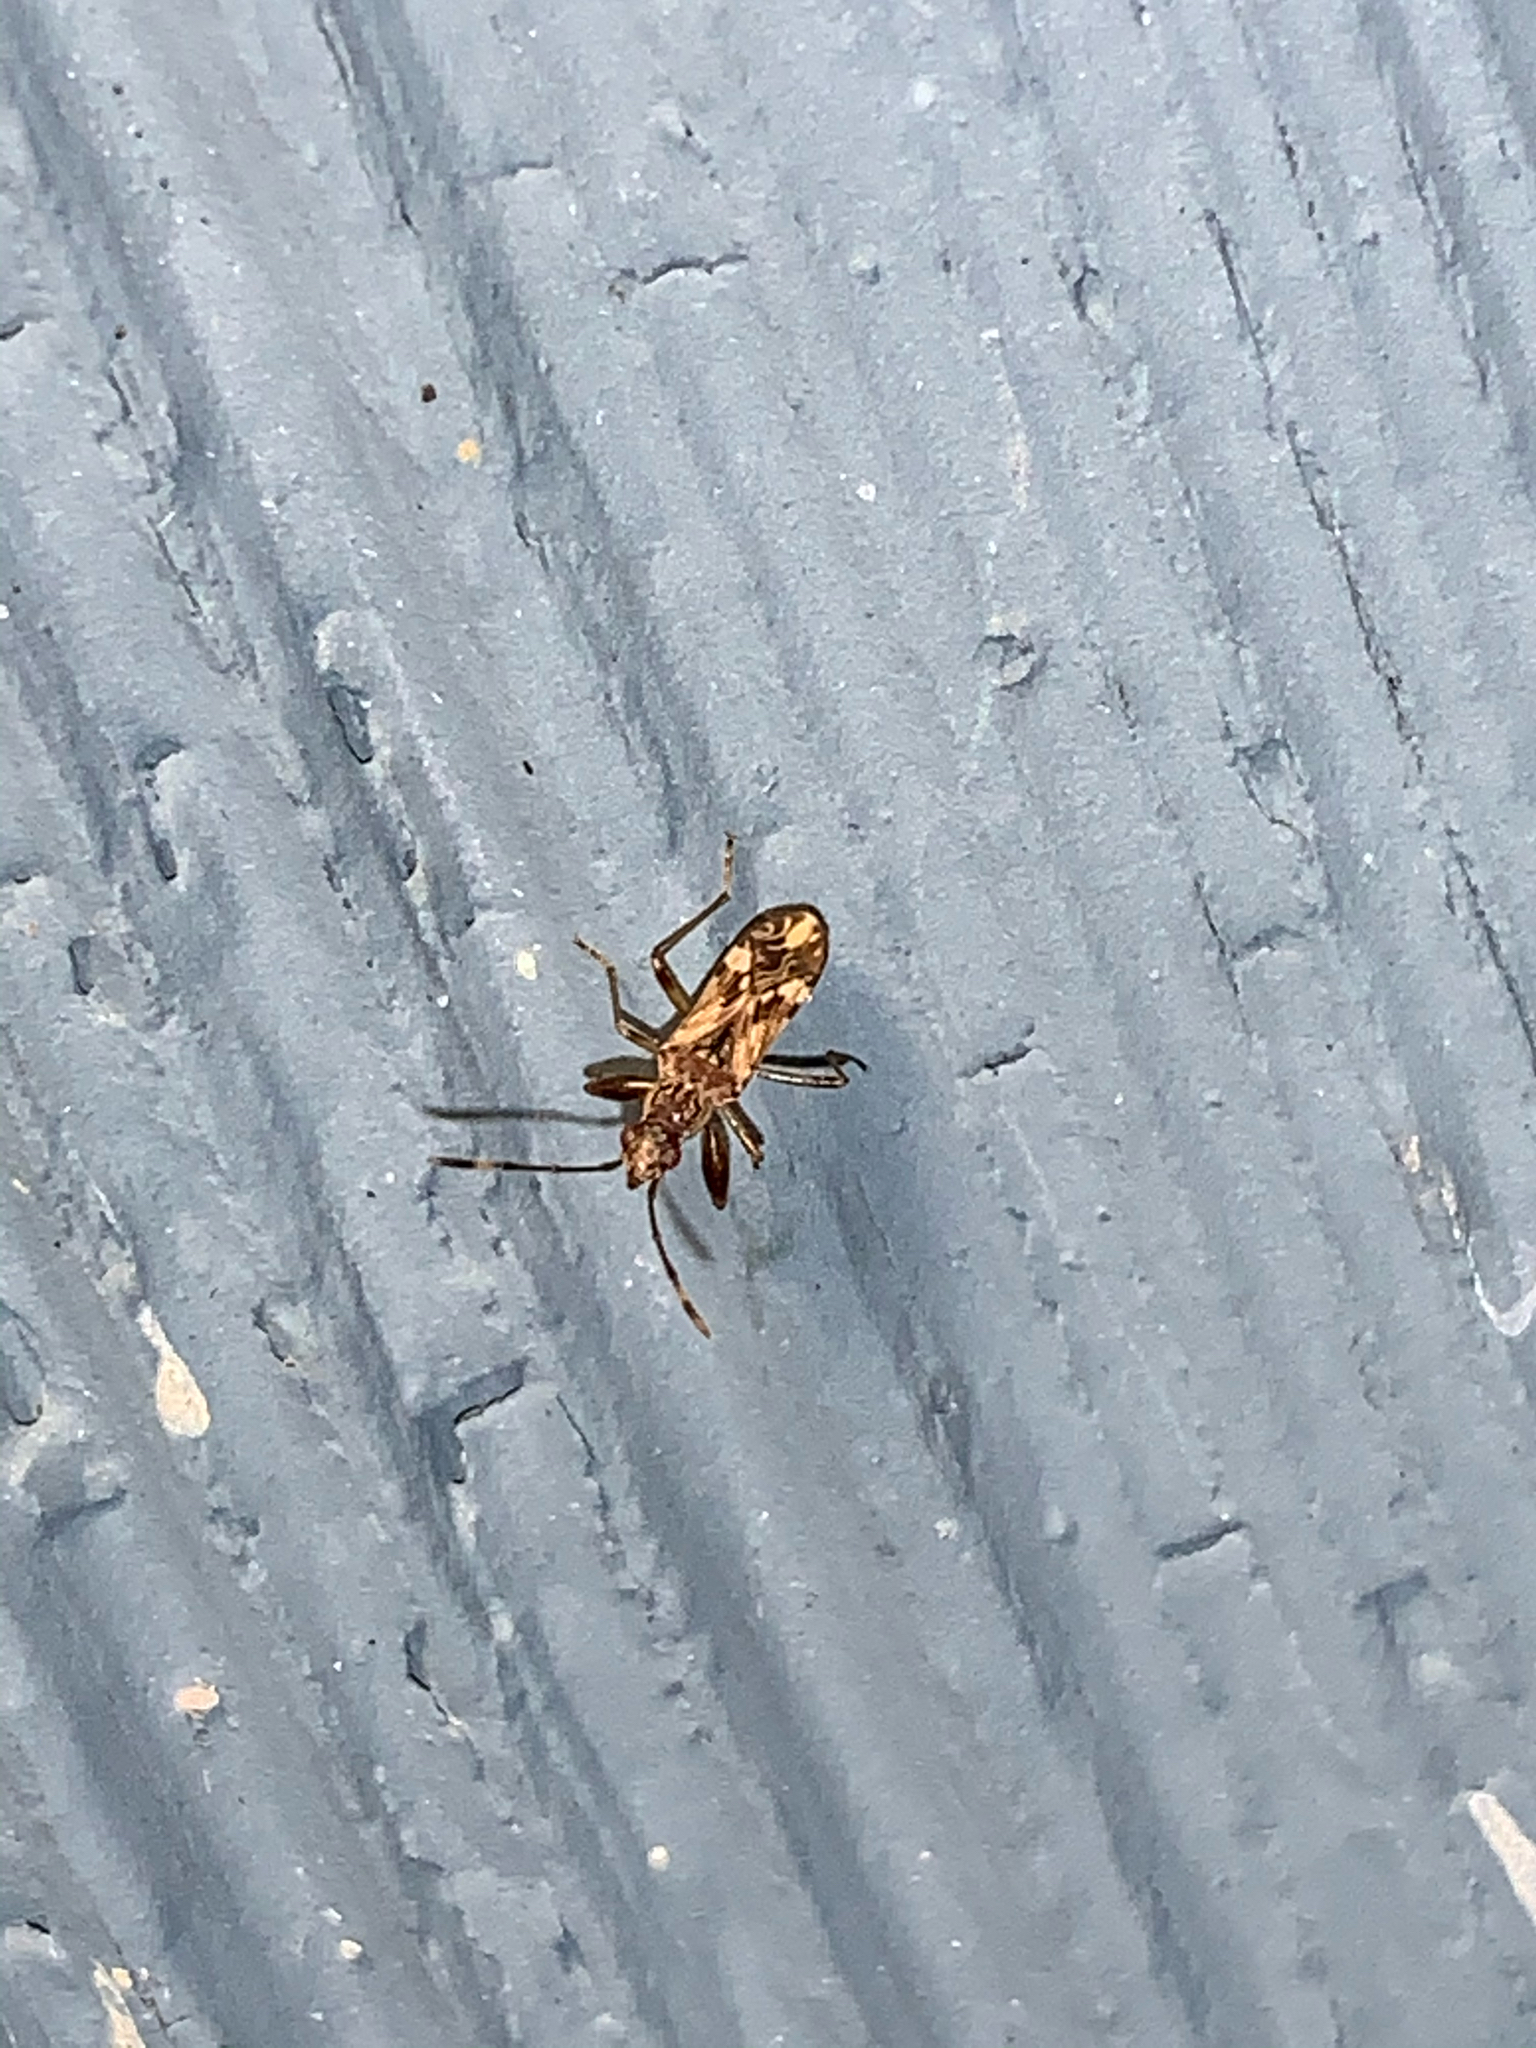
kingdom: Animalia
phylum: Arthropoda
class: Insecta
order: Hemiptera
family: Rhyparochromidae
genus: Neopamera
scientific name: Neopamera albocincta
